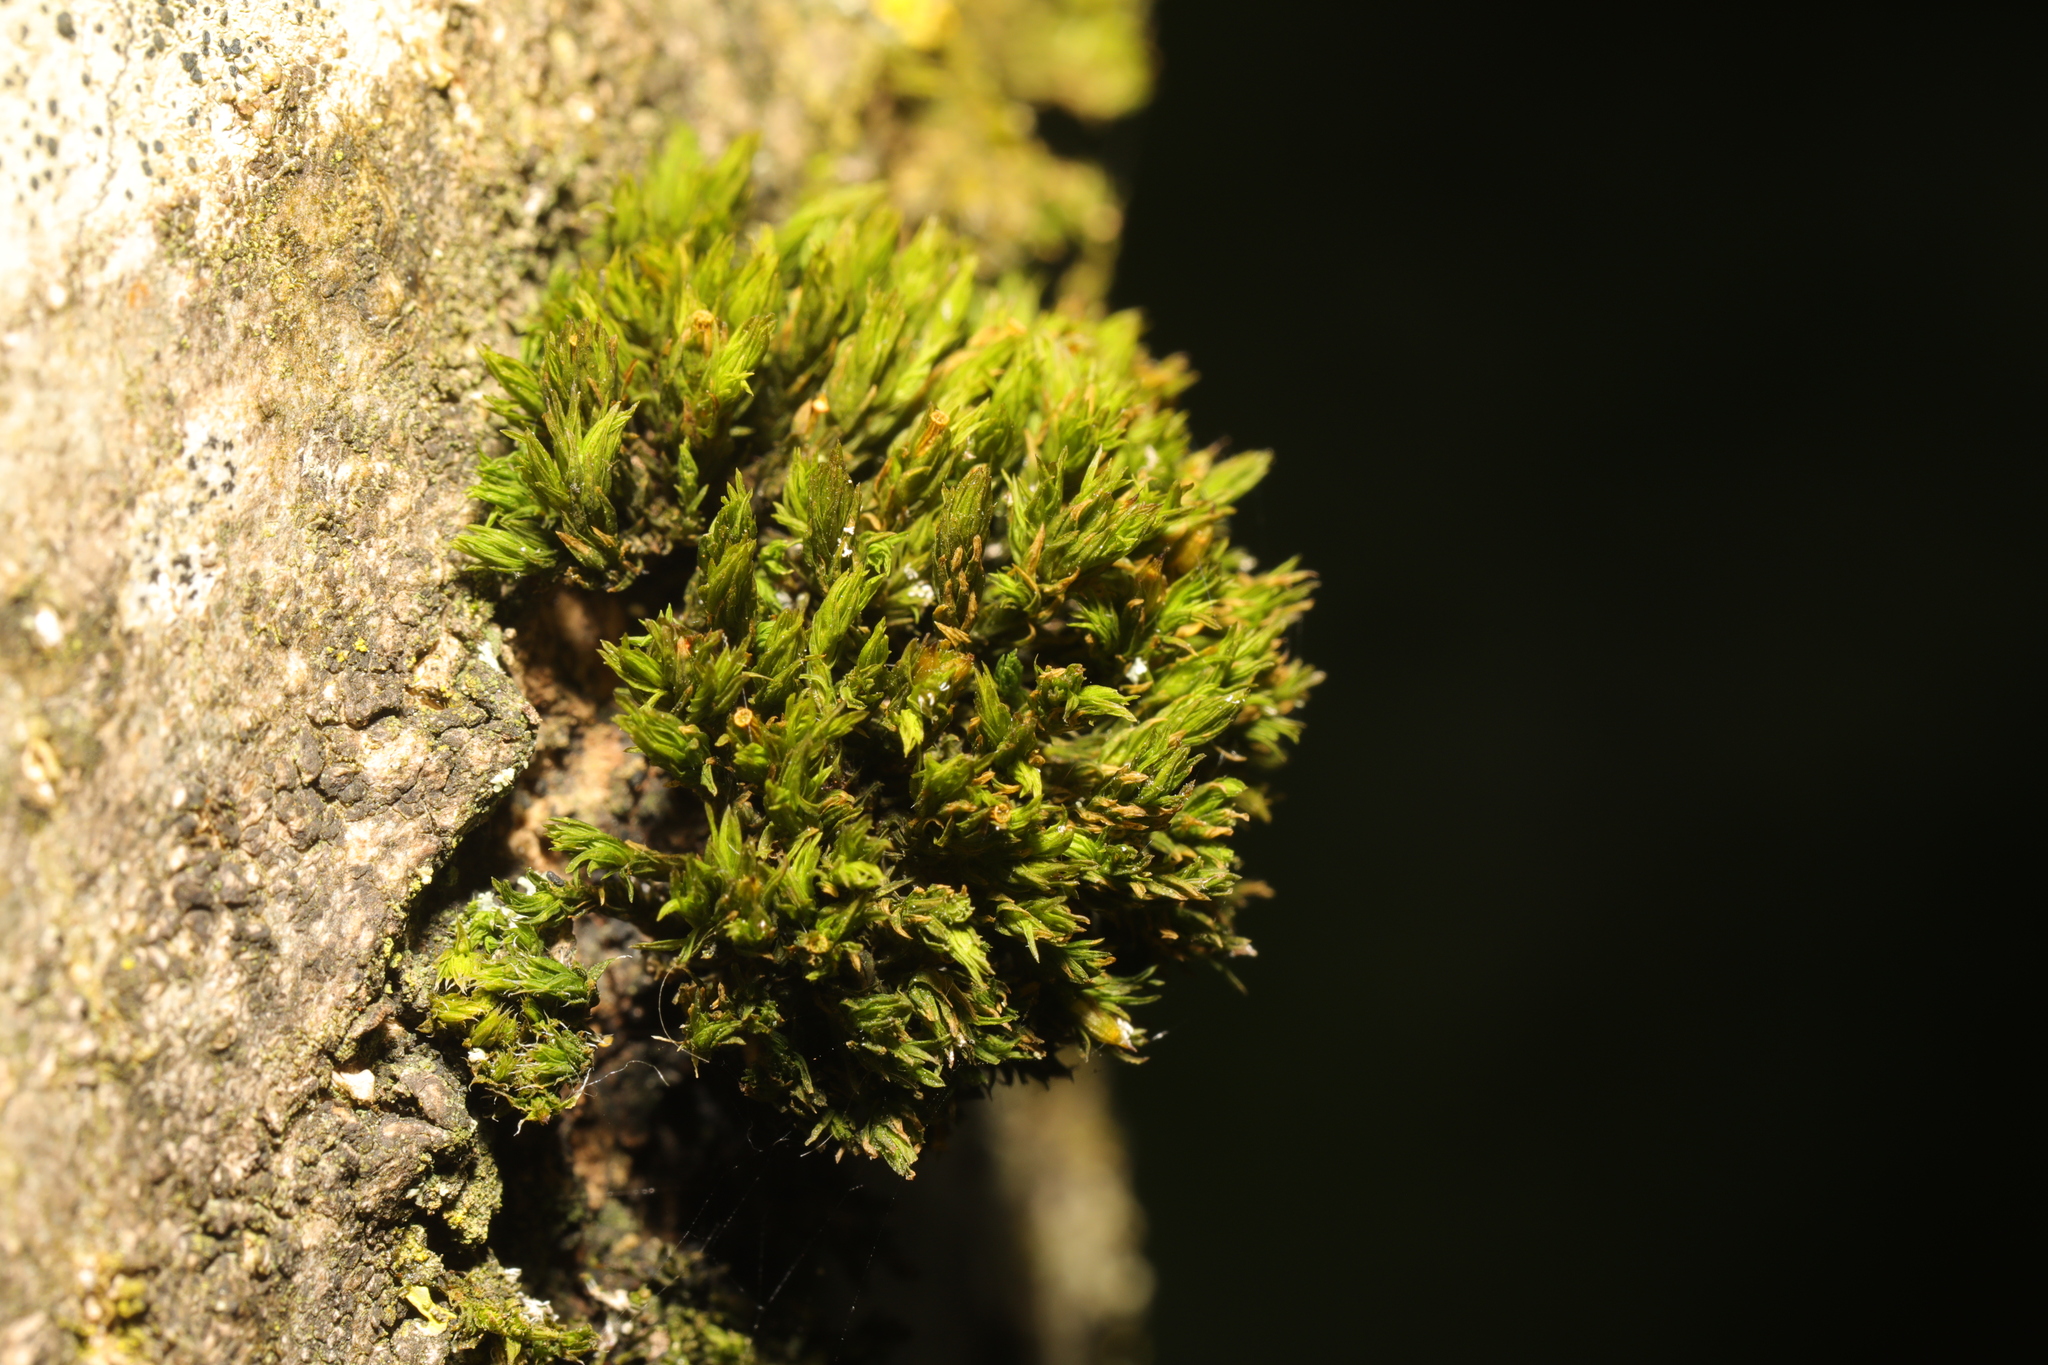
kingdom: Plantae
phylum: Bryophyta
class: Bryopsida
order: Orthotrichales
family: Orthotrichaceae
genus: Lewinskya
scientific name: Lewinskya affinis
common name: Wood bristle-moss
